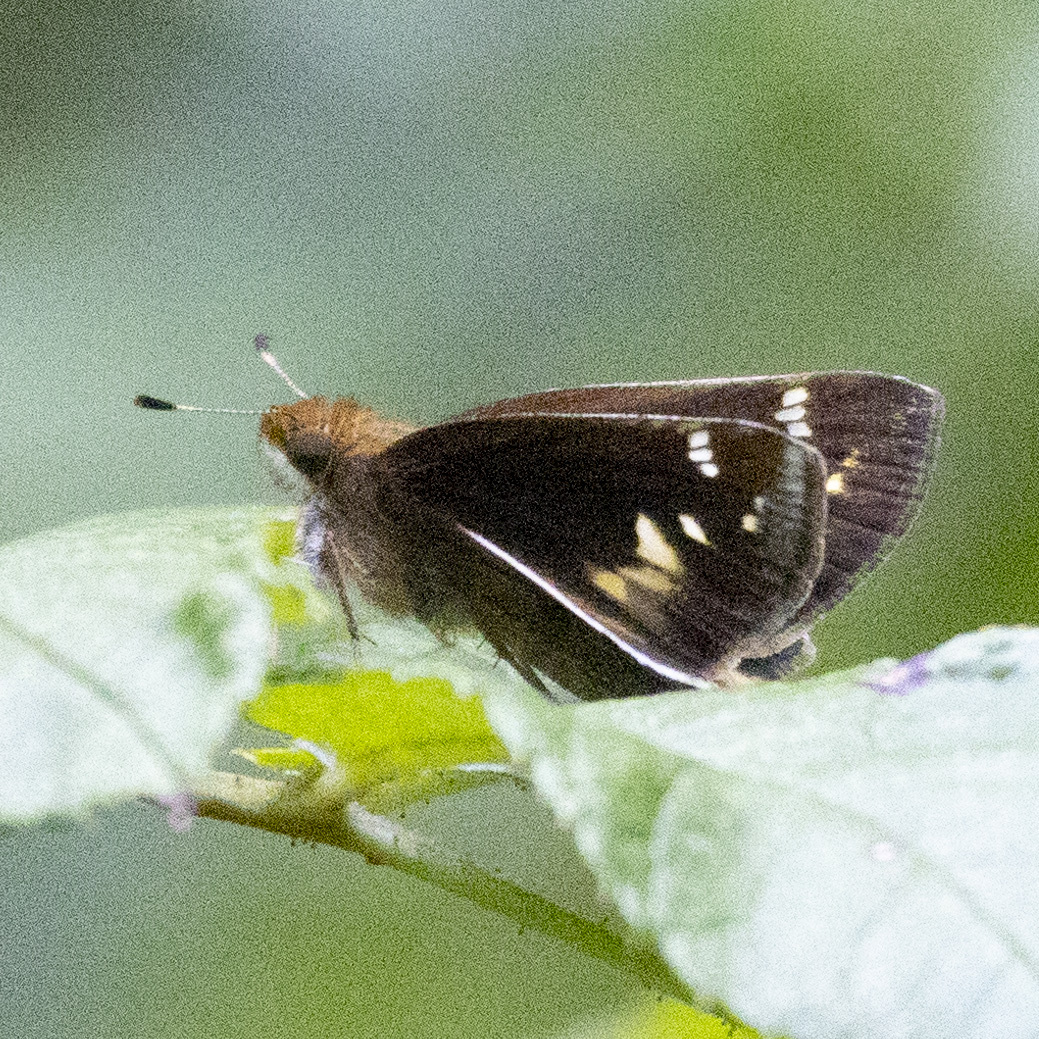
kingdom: Animalia
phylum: Arthropoda
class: Insecta
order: Lepidoptera
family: Hesperiidae
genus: Lon
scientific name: Lon zabulon
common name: Zabulon skipper
